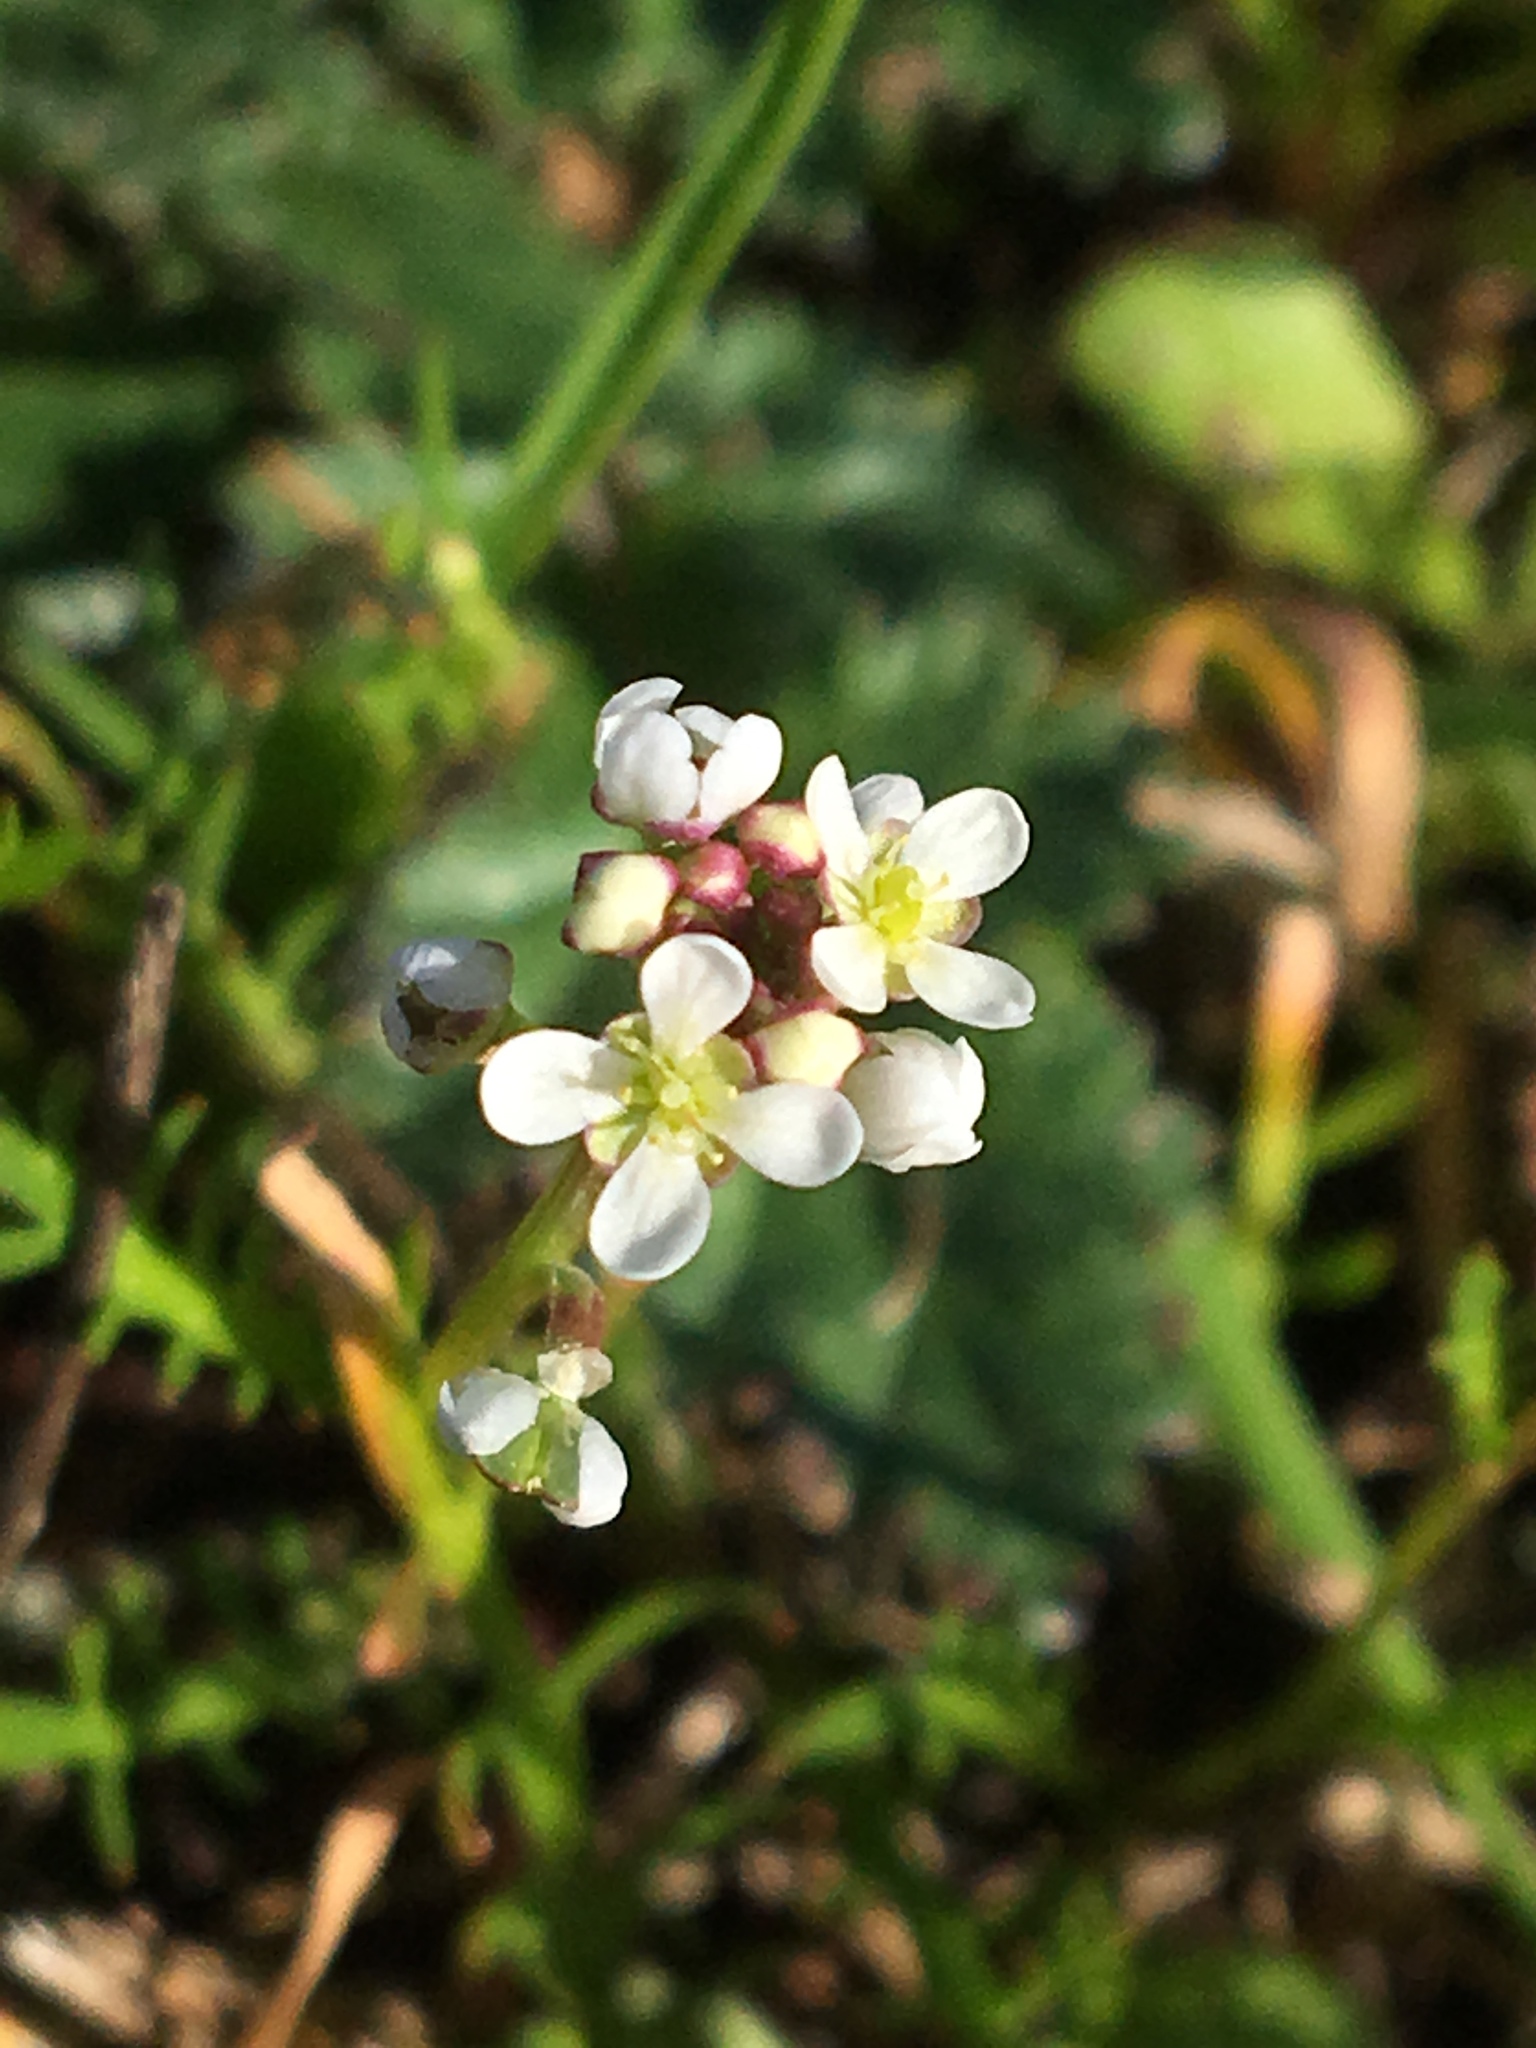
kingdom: Plantae
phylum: Tracheophyta
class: Magnoliopsida
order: Brassicales
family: Brassicaceae
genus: Capsella
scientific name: Capsella bursa-pastoris
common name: Shepherd's purse
